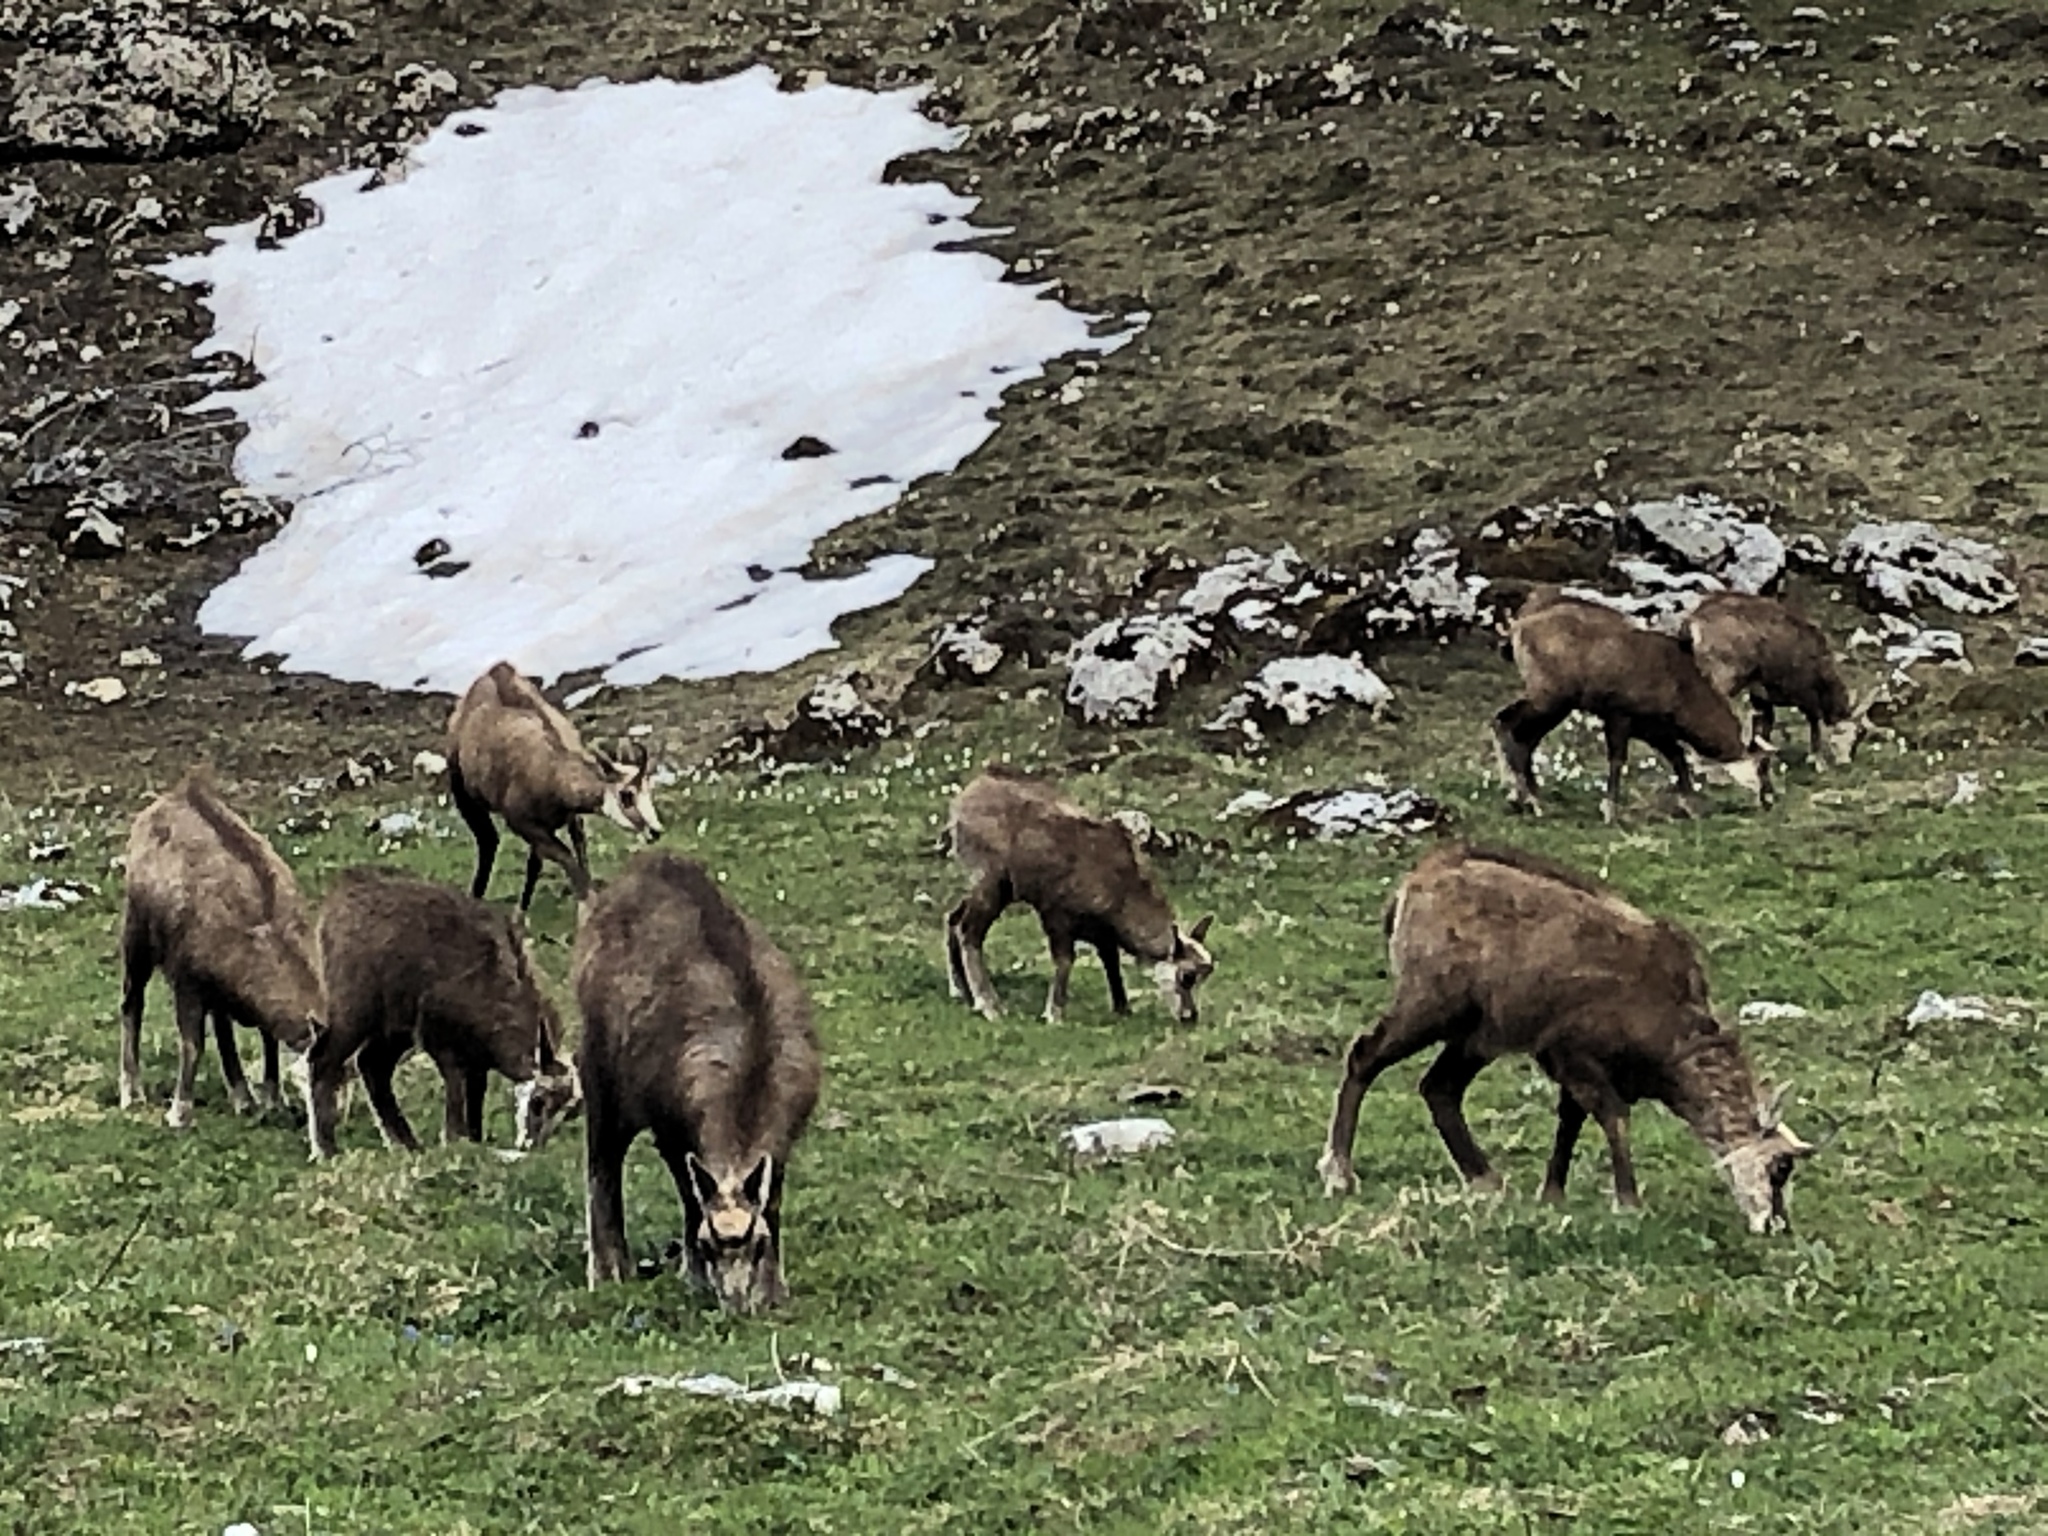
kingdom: Animalia
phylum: Chordata
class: Mammalia
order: Artiodactyla
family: Bovidae
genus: Rupicapra
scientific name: Rupicapra rupicapra
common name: Chamois
